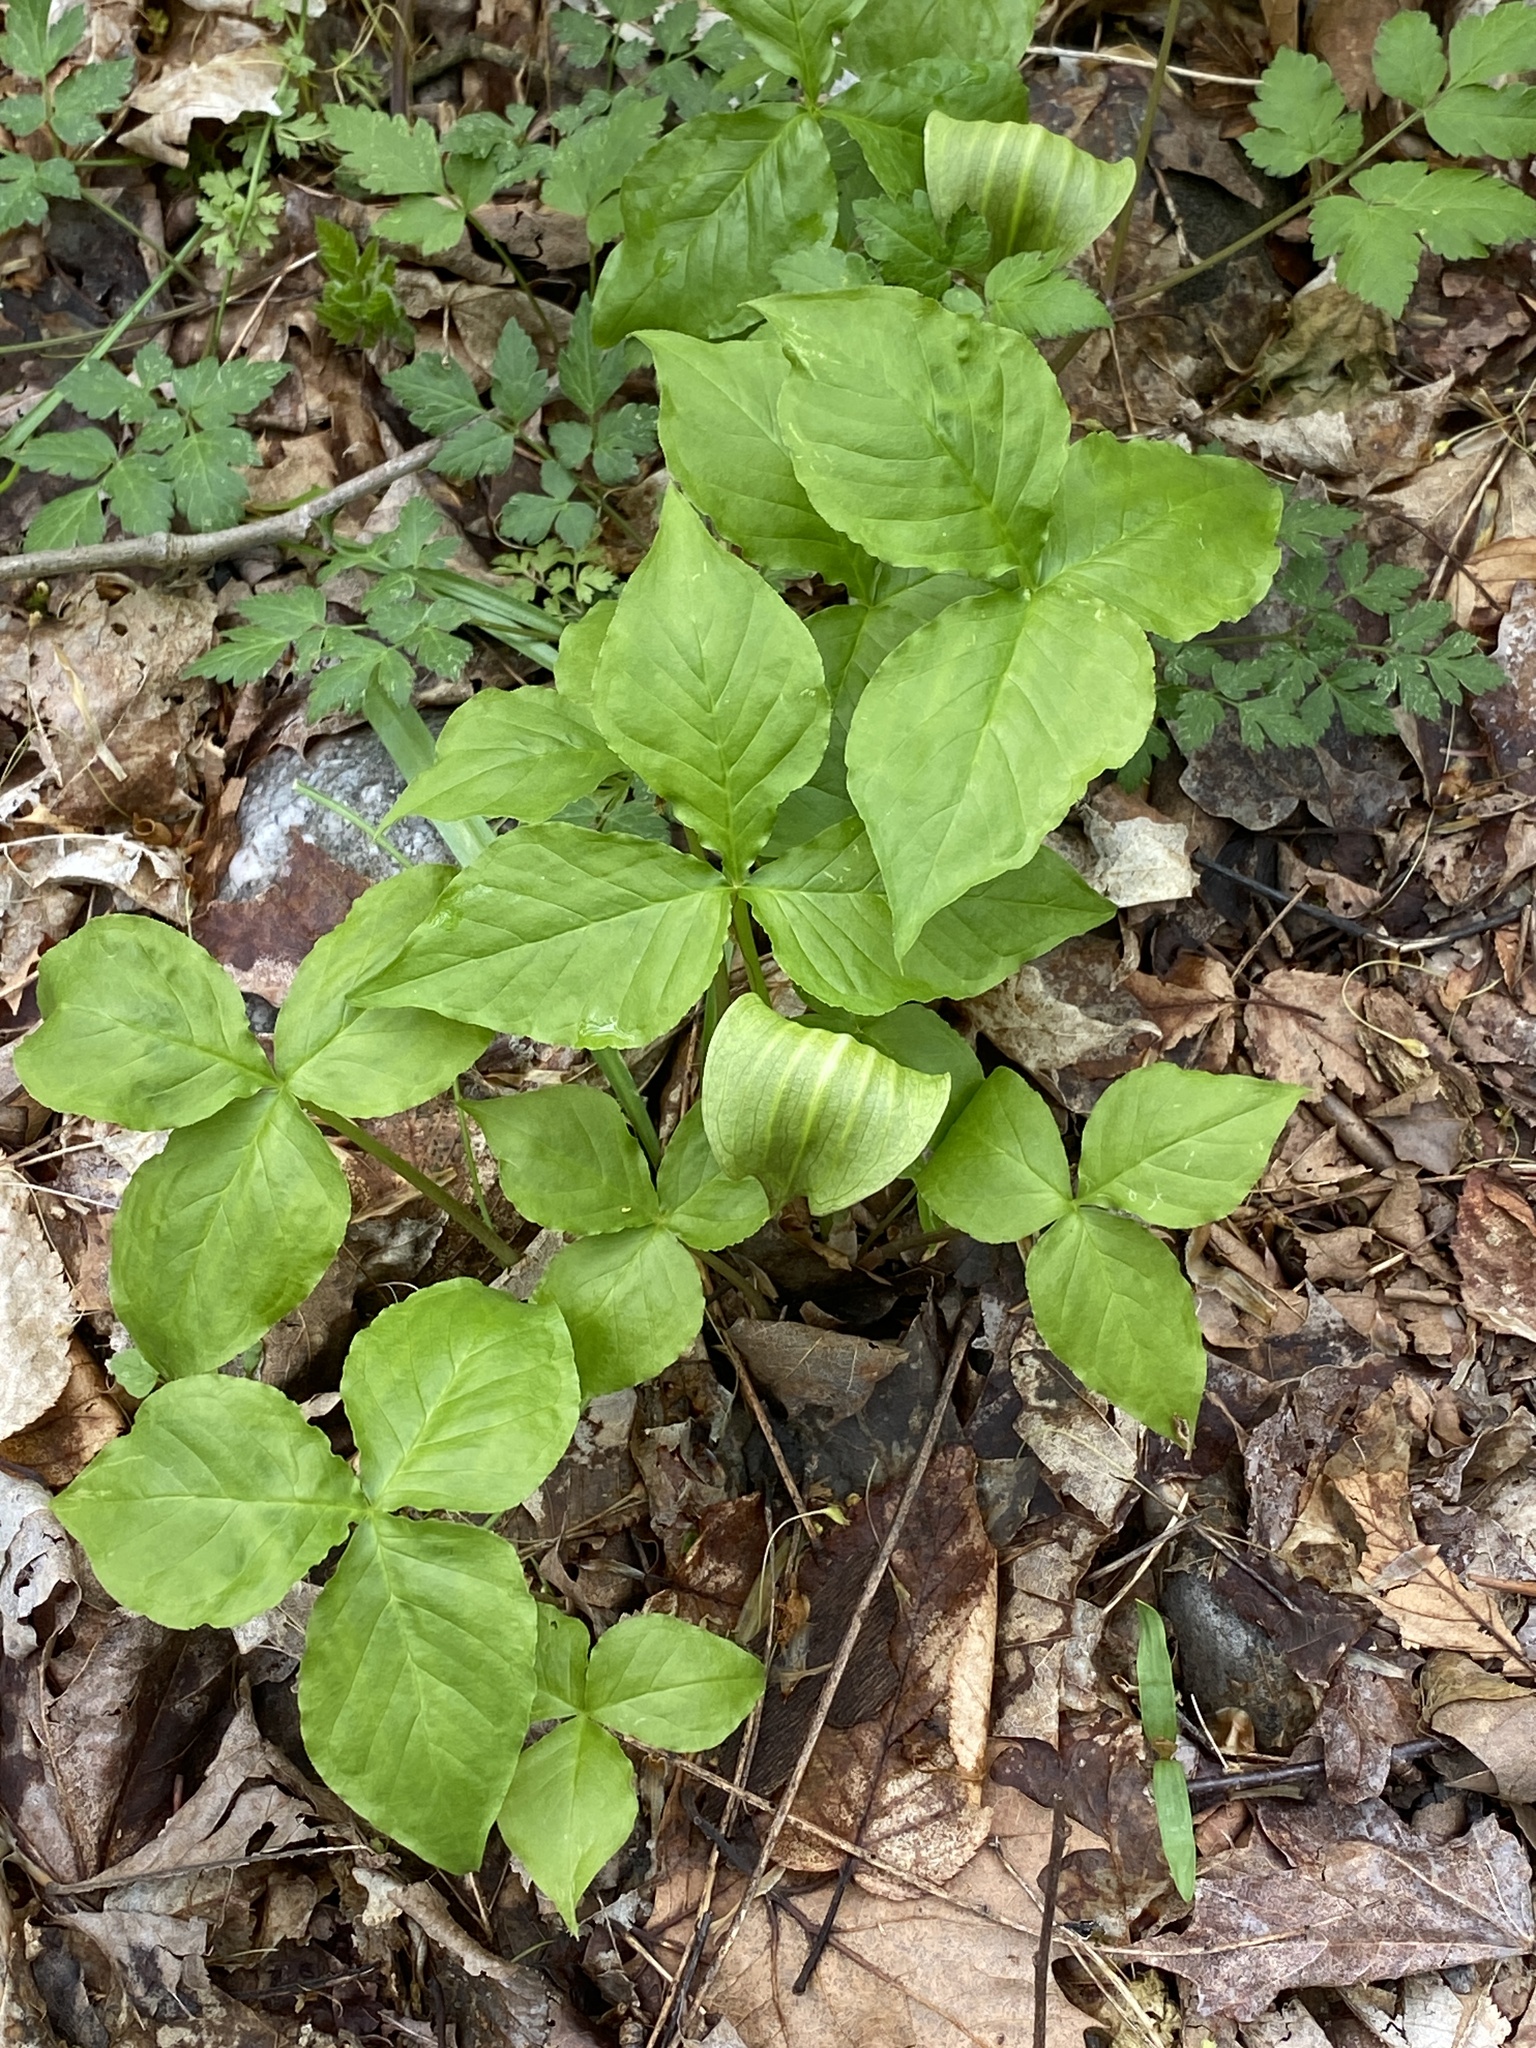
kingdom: Plantae
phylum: Tracheophyta
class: Liliopsida
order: Alismatales
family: Araceae
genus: Arisaema
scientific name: Arisaema triphyllum
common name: Jack-in-the-pulpit
